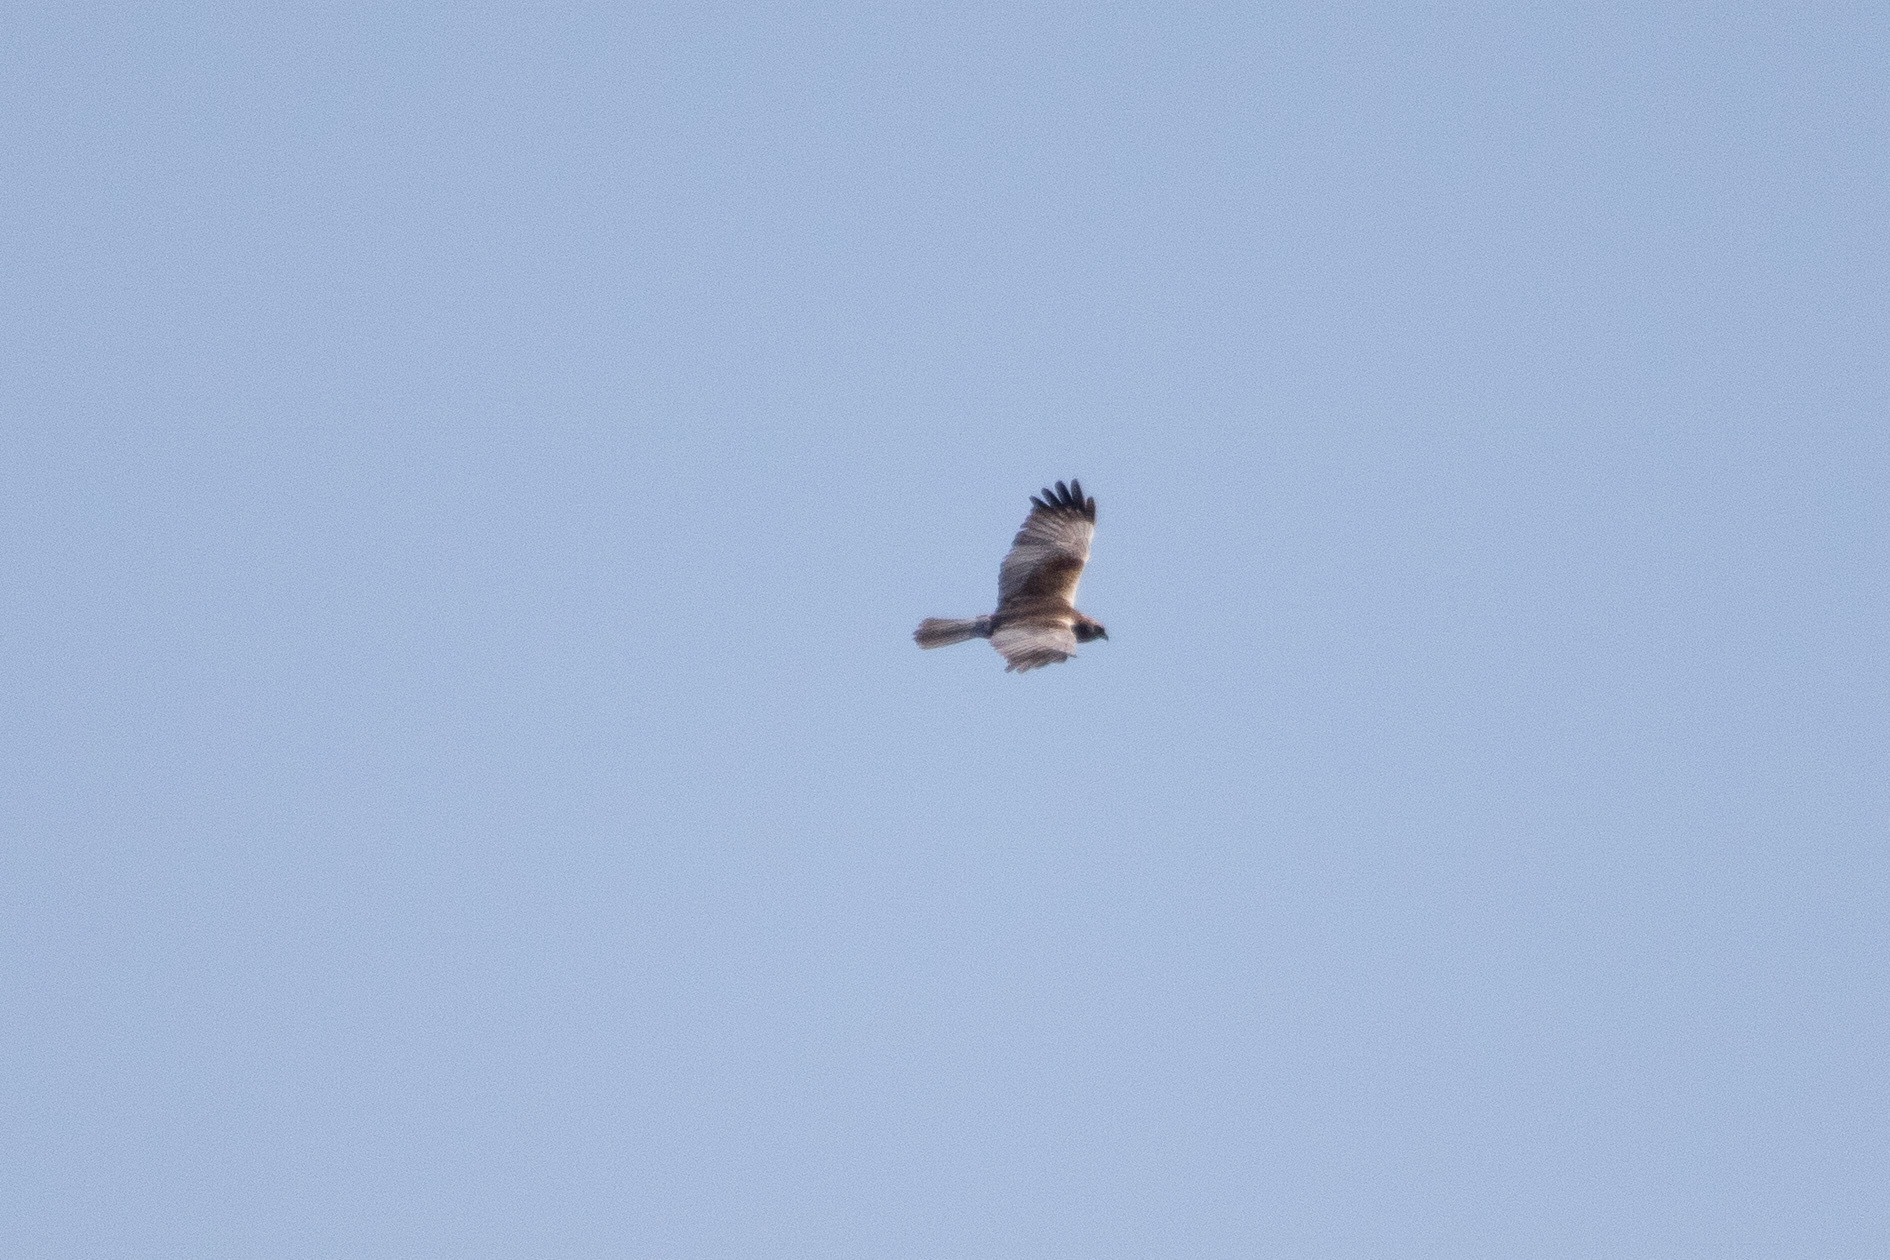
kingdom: Animalia
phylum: Chordata
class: Aves
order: Accipitriformes
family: Accipitridae
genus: Circus
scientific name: Circus aeruginosus
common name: Western marsh harrier
